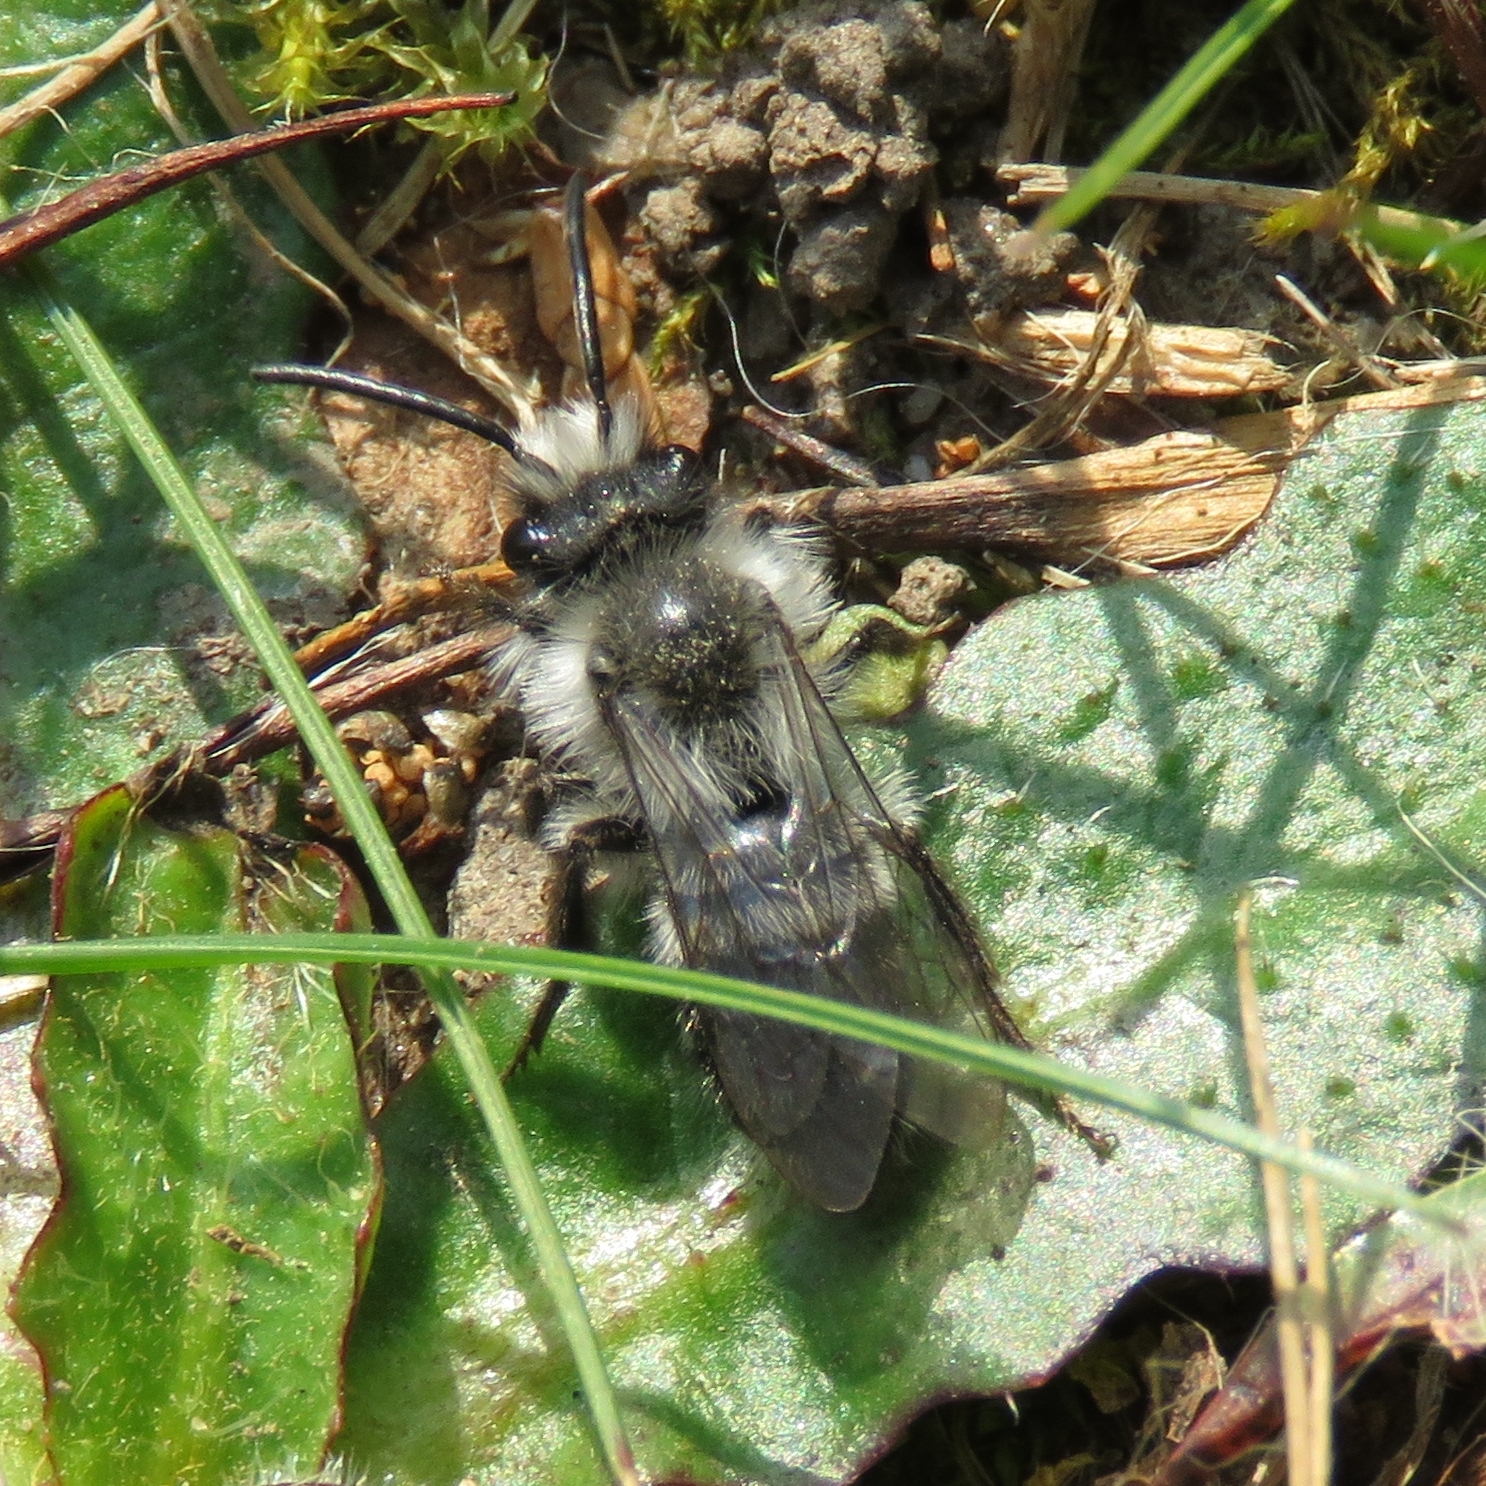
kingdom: Animalia
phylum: Arthropoda
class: Insecta
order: Hymenoptera
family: Andrenidae
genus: Andrena
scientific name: Andrena cineraria
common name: Ashy mining bee
